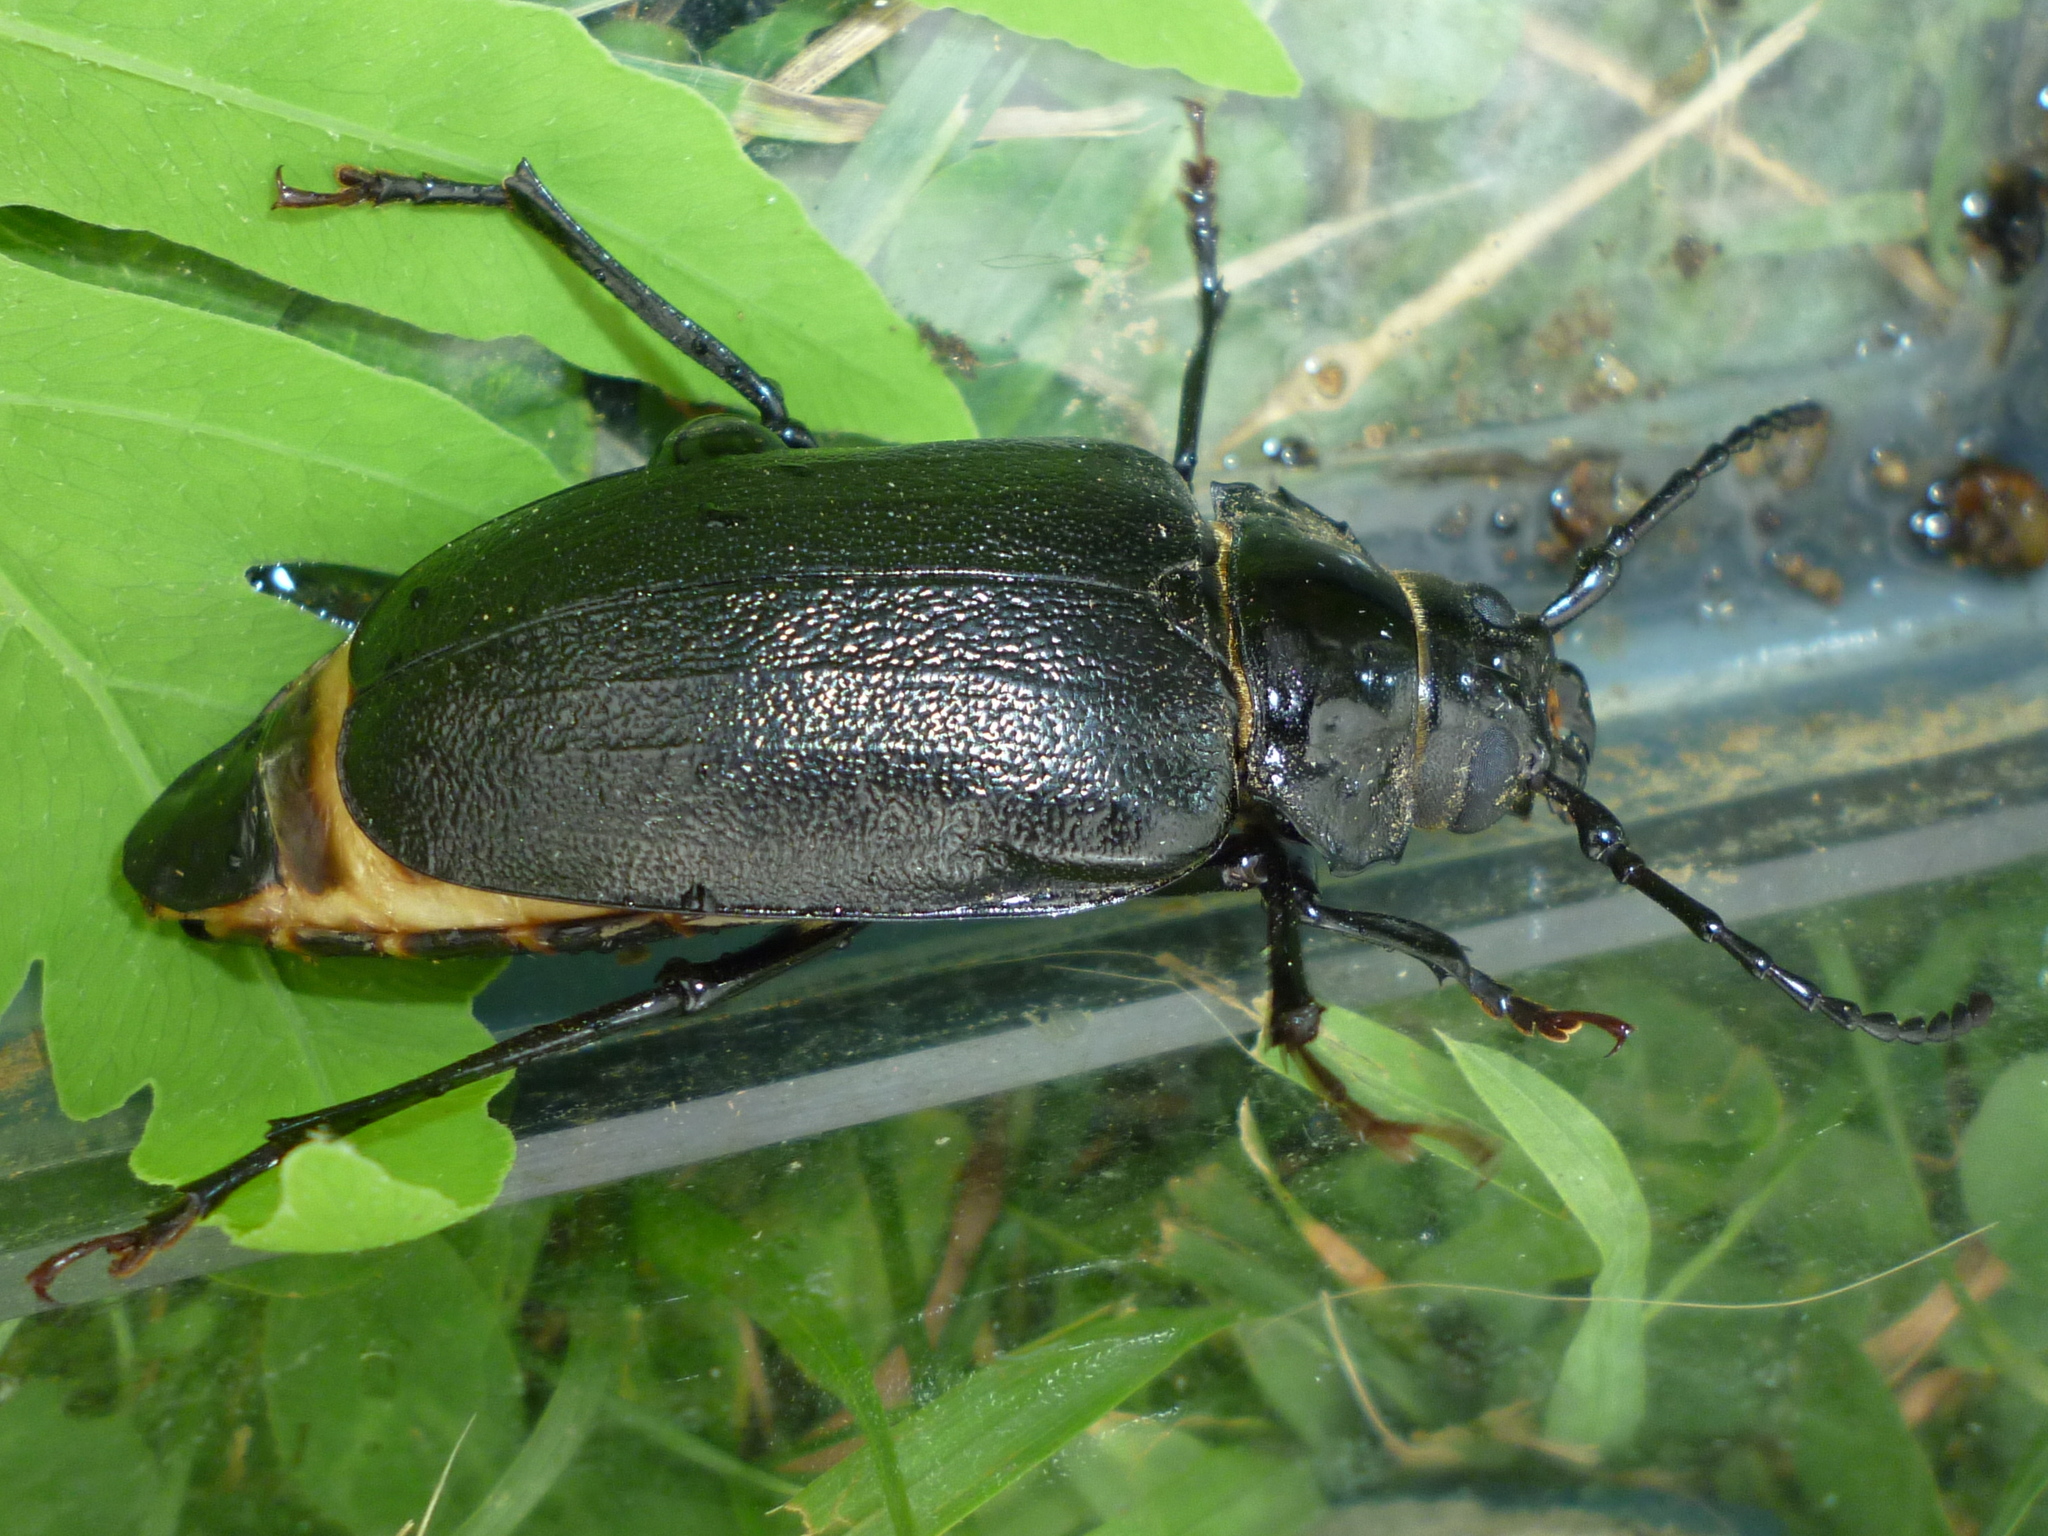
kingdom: Animalia
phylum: Arthropoda
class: Insecta
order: Coleoptera
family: Cerambycidae
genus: Prionus
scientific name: Prionus laticollis
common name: Broad necked prionus
